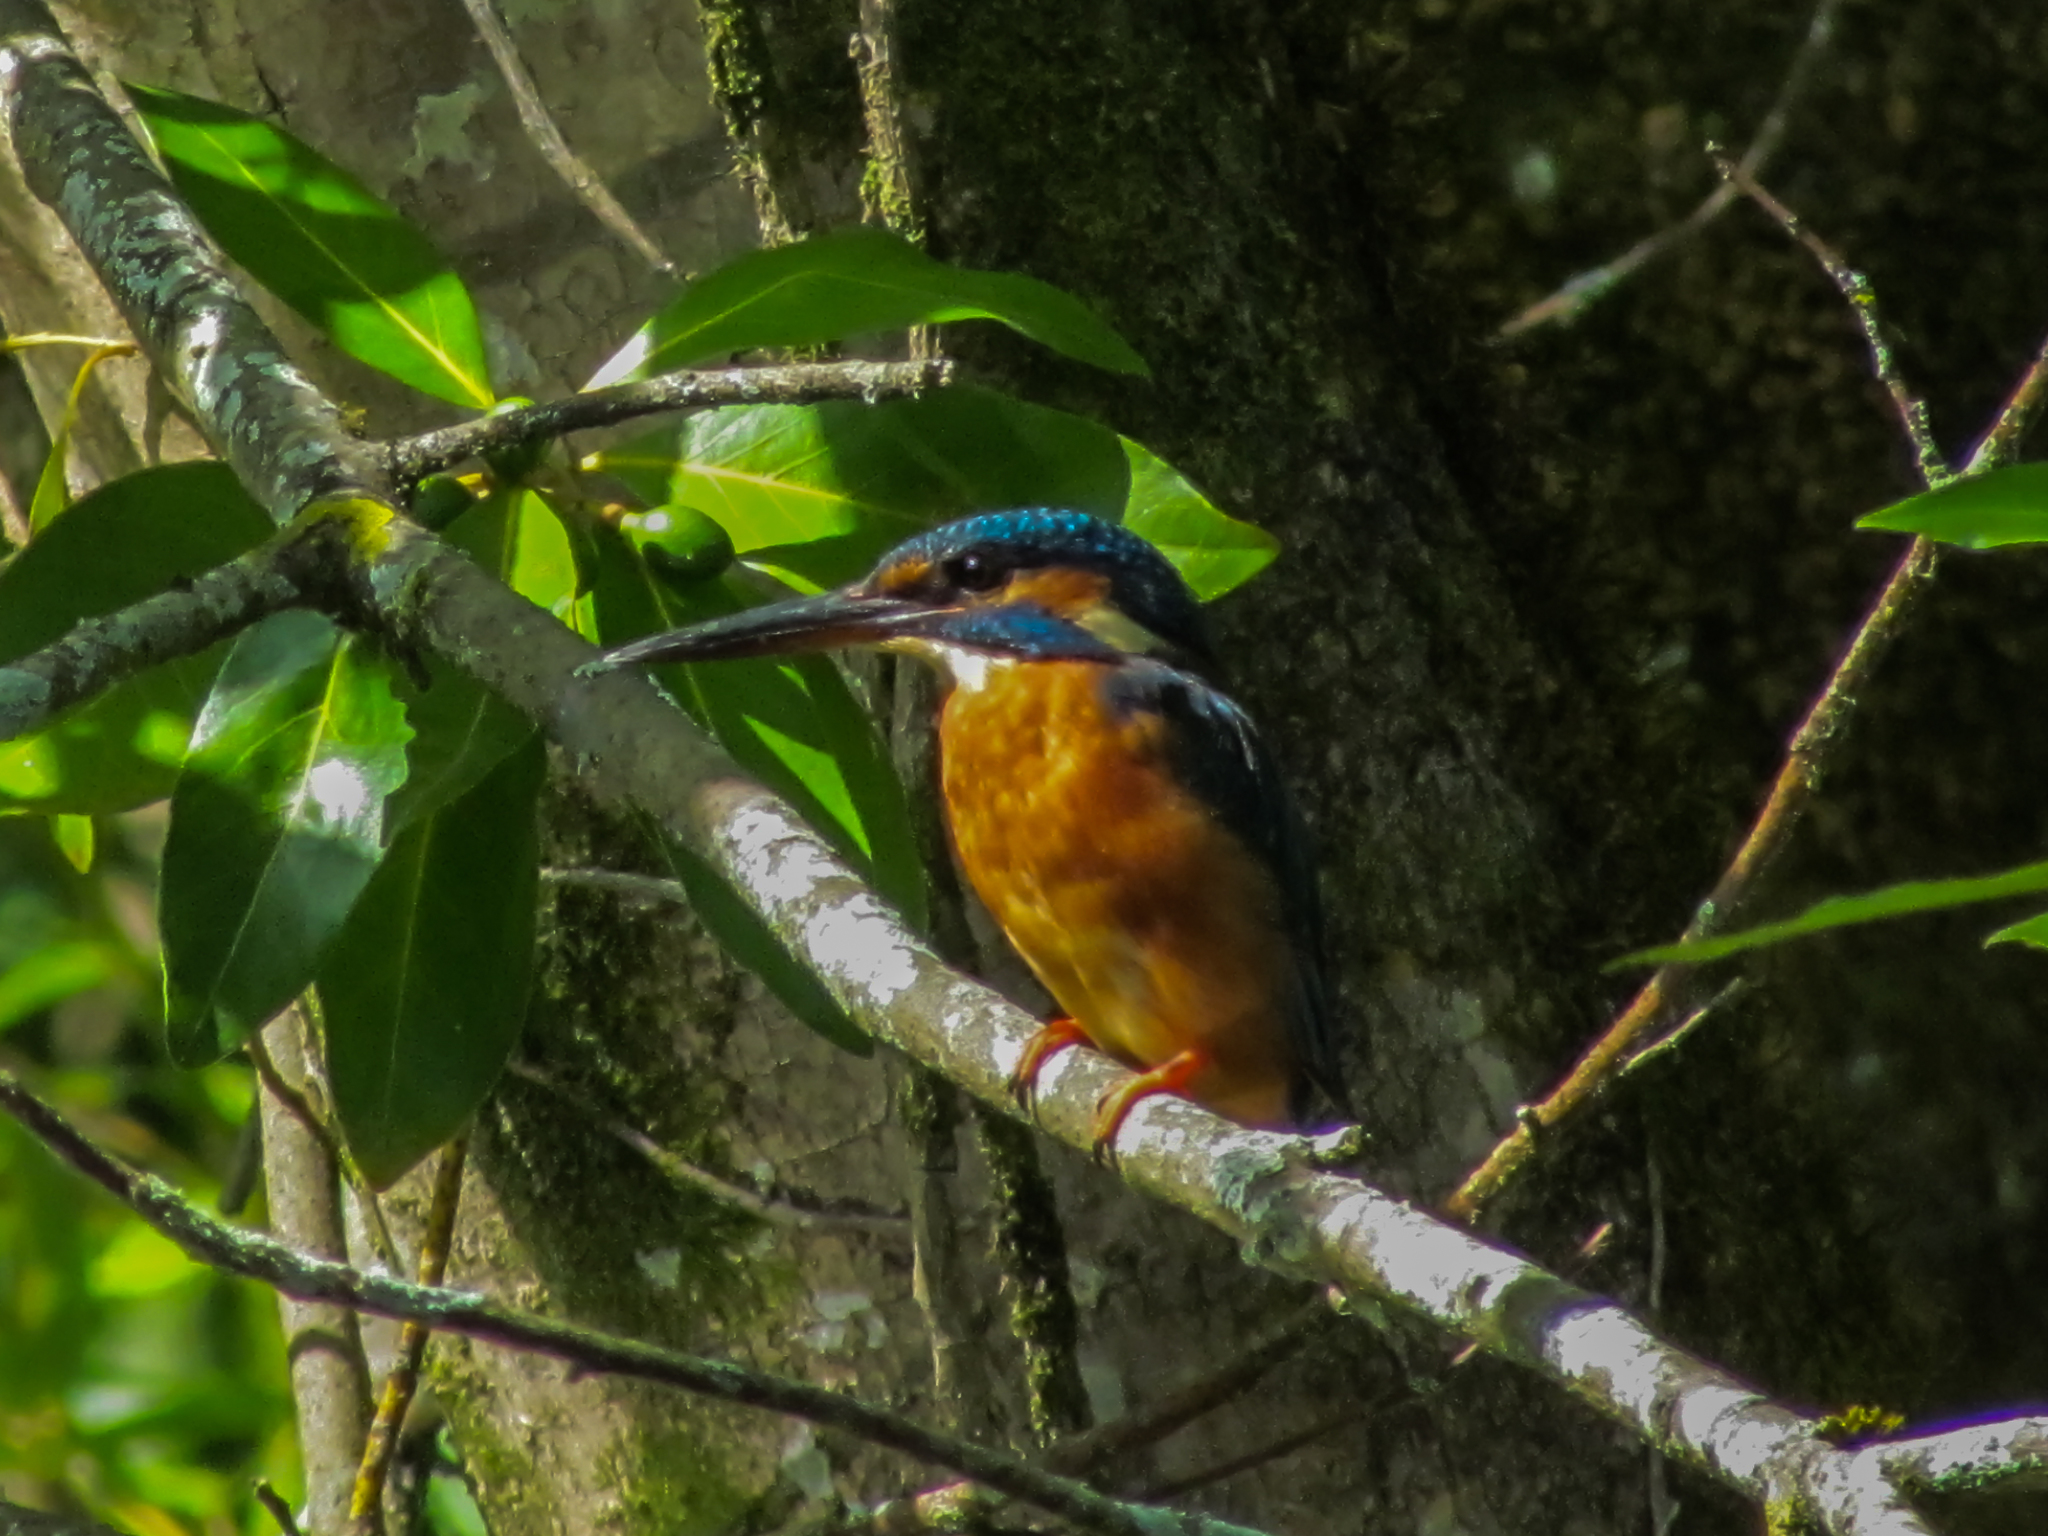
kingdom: Animalia
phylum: Chordata
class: Aves
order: Coraciiformes
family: Alcedinidae
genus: Alcedo
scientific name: Alcedo atthis
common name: Common kingfisher
